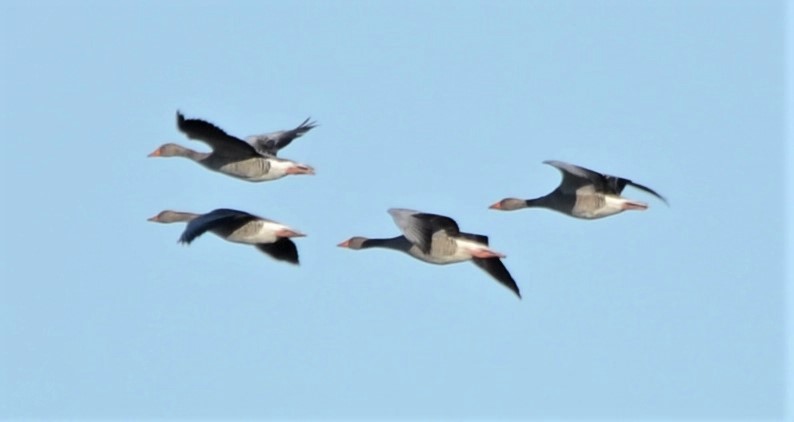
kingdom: Animalia
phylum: Chordata
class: Aves
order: Anseriformes
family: Anatidae
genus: Anser
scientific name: Anser anser
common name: Greylag goose
